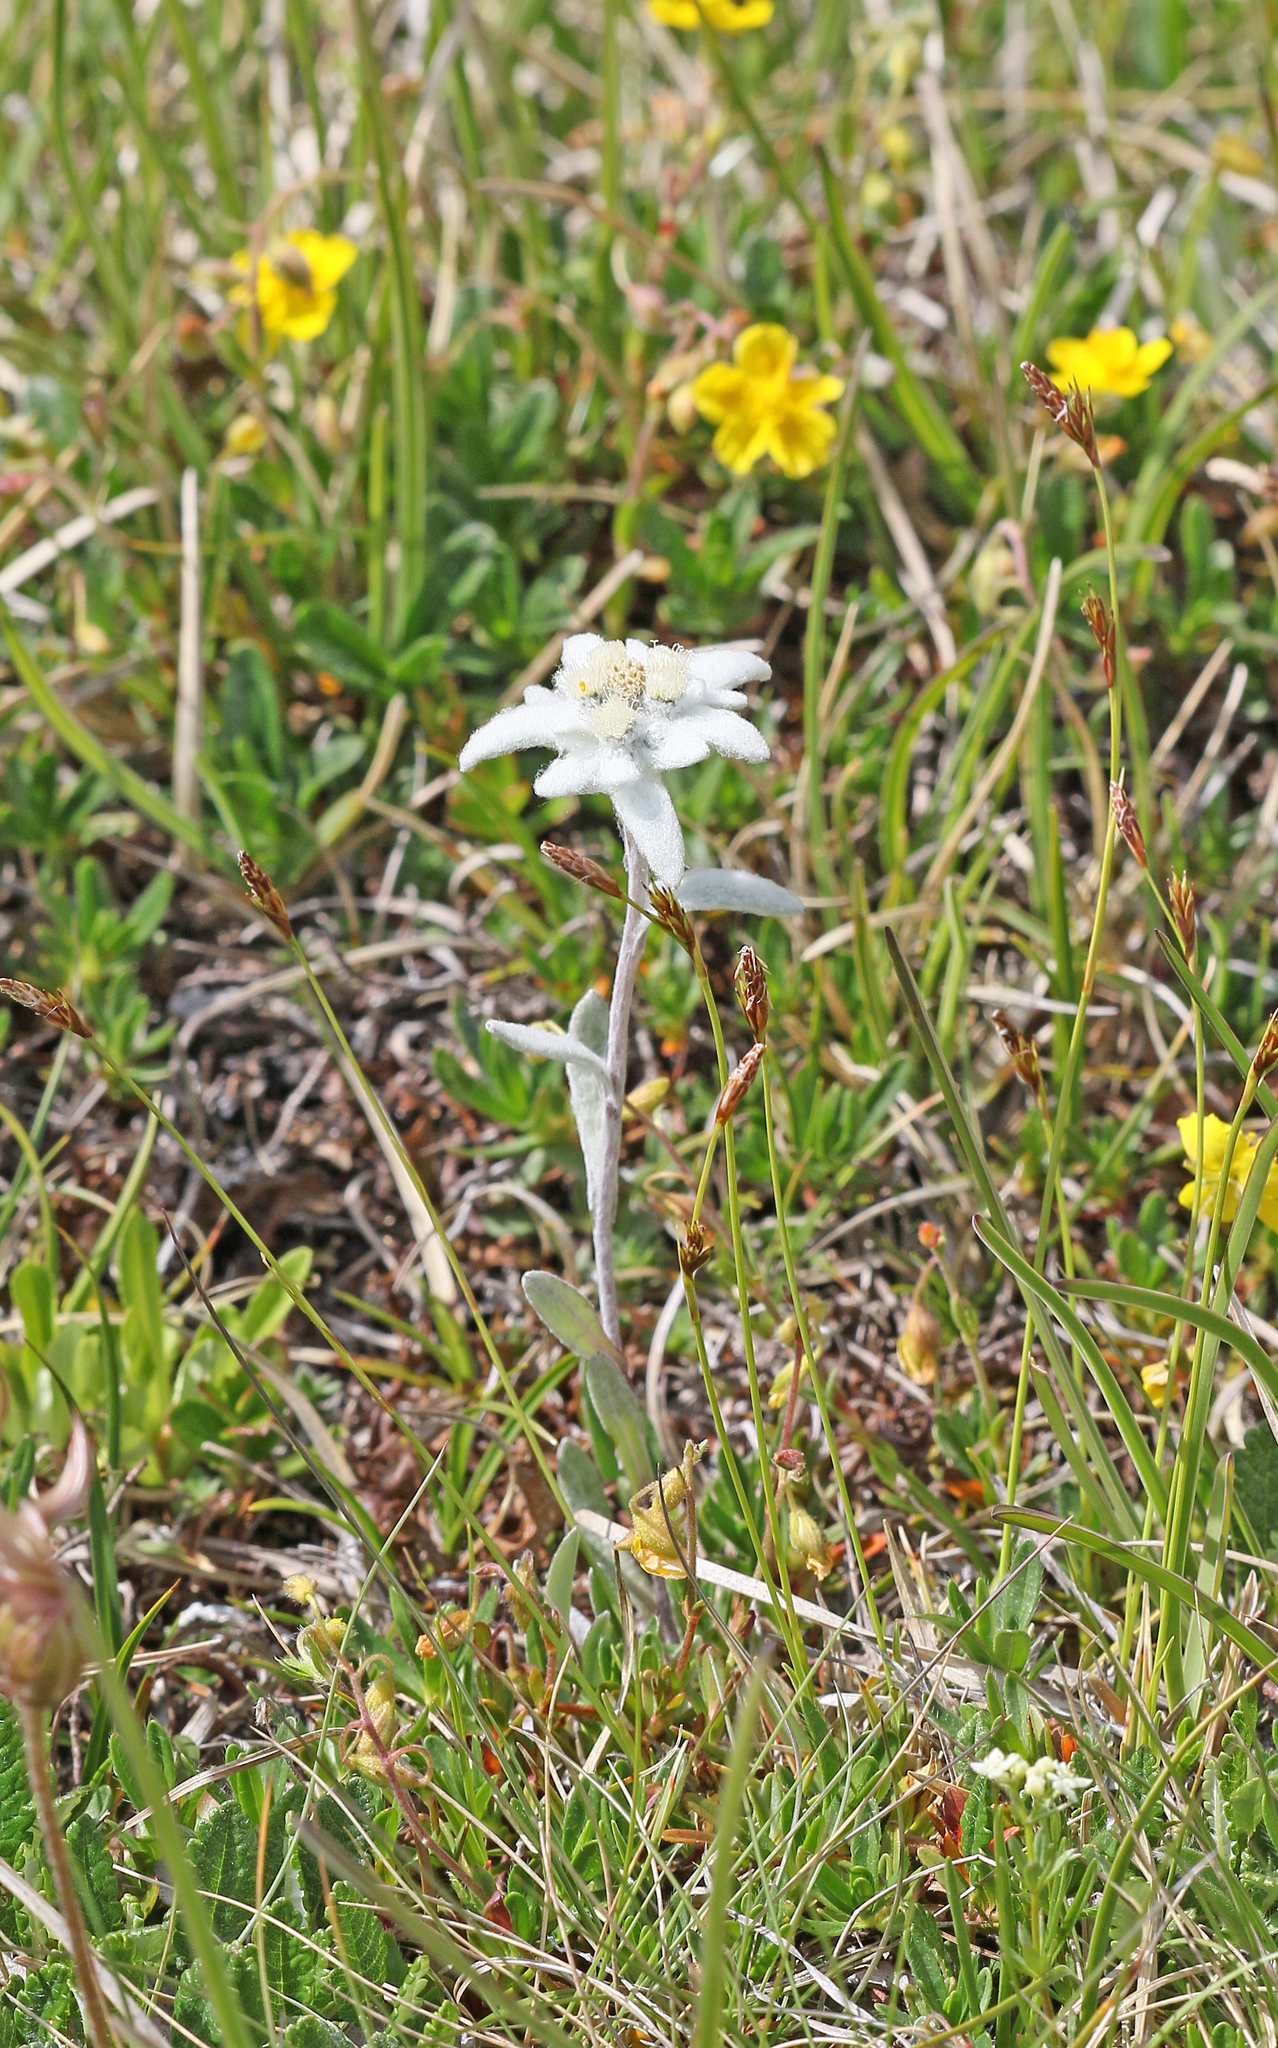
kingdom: Plantae
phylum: Tracheophyta
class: Magnoliopsida
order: Asterales
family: Asteraceae
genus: Leontopodium
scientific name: Leontopodium nivale
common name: Edelweiss
